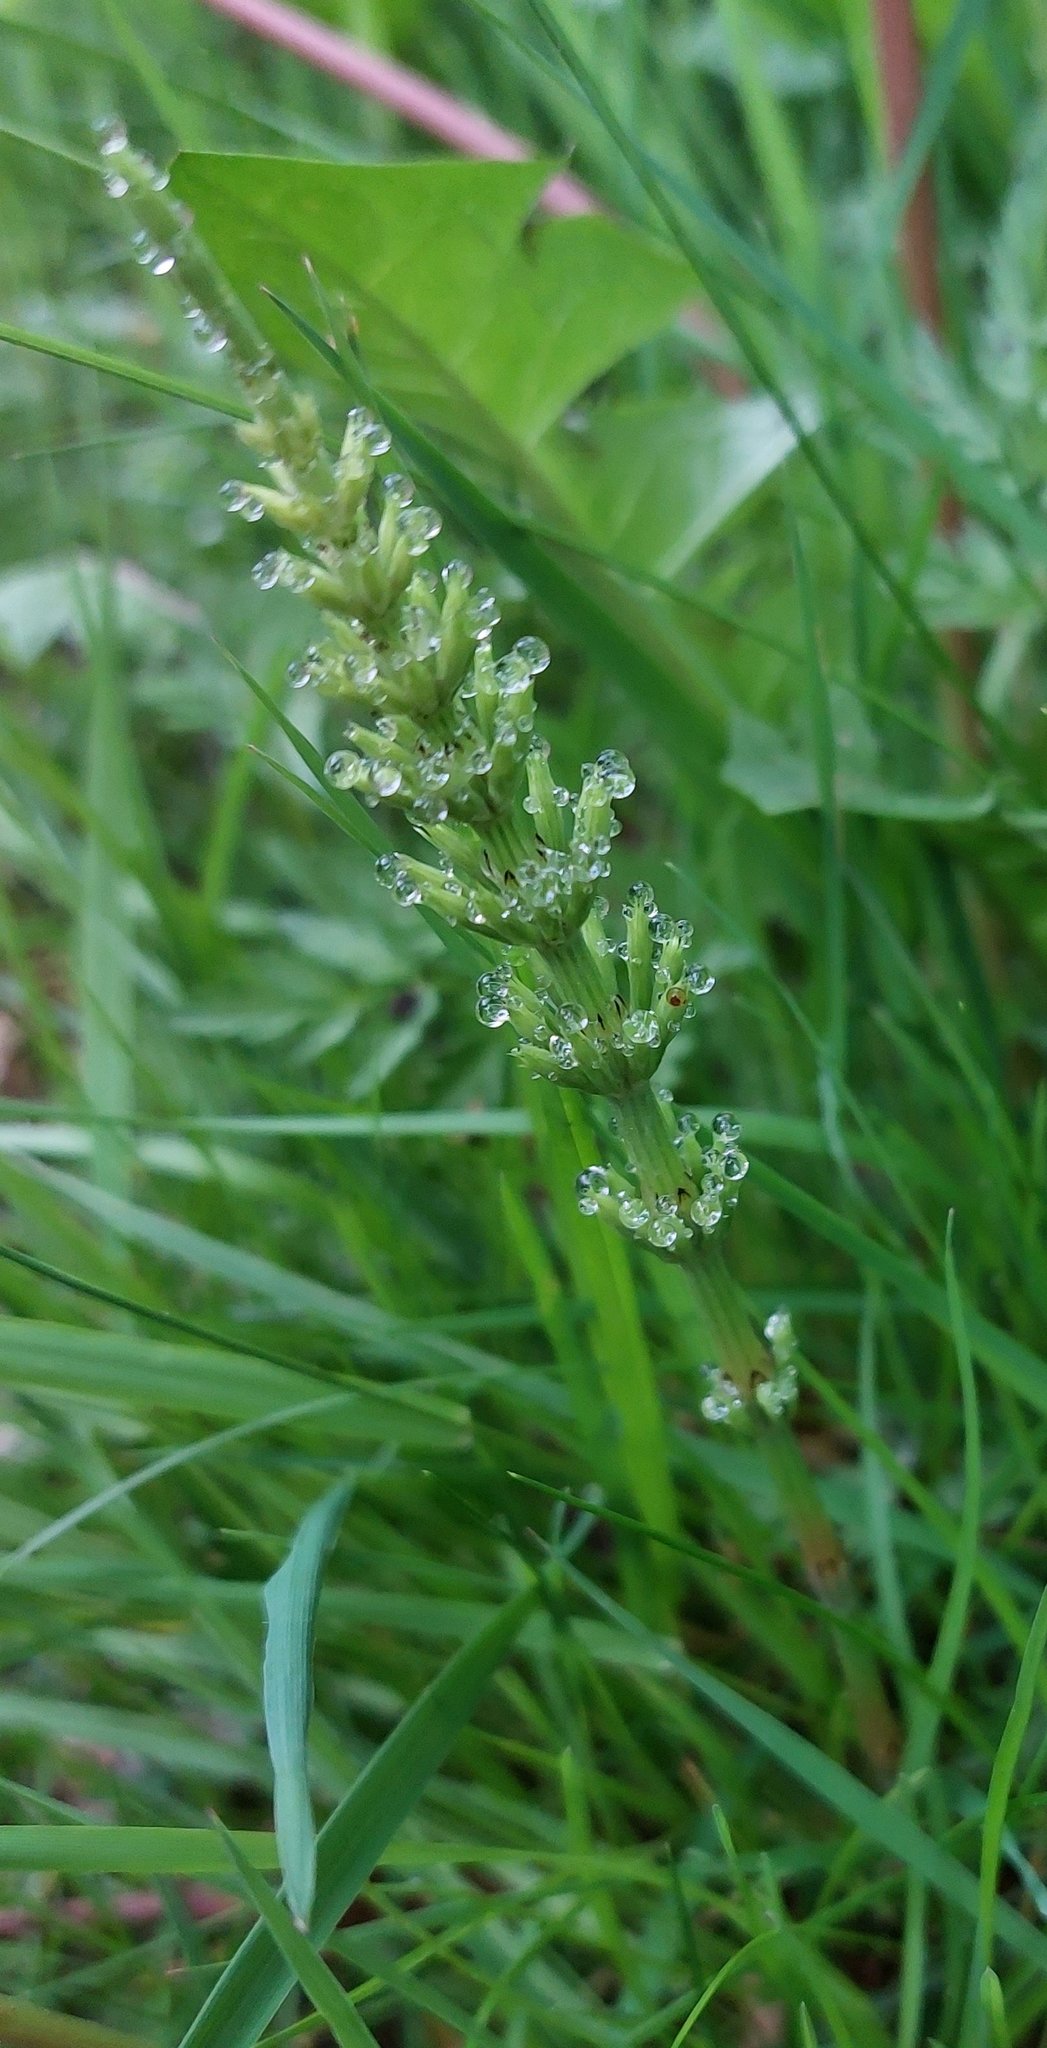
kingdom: Plantae
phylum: Tracheophyta
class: Polypodiopsida
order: Equisetales
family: Equisetaceae
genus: Equisetum
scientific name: Equisetum arvense
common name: Field horsetail
